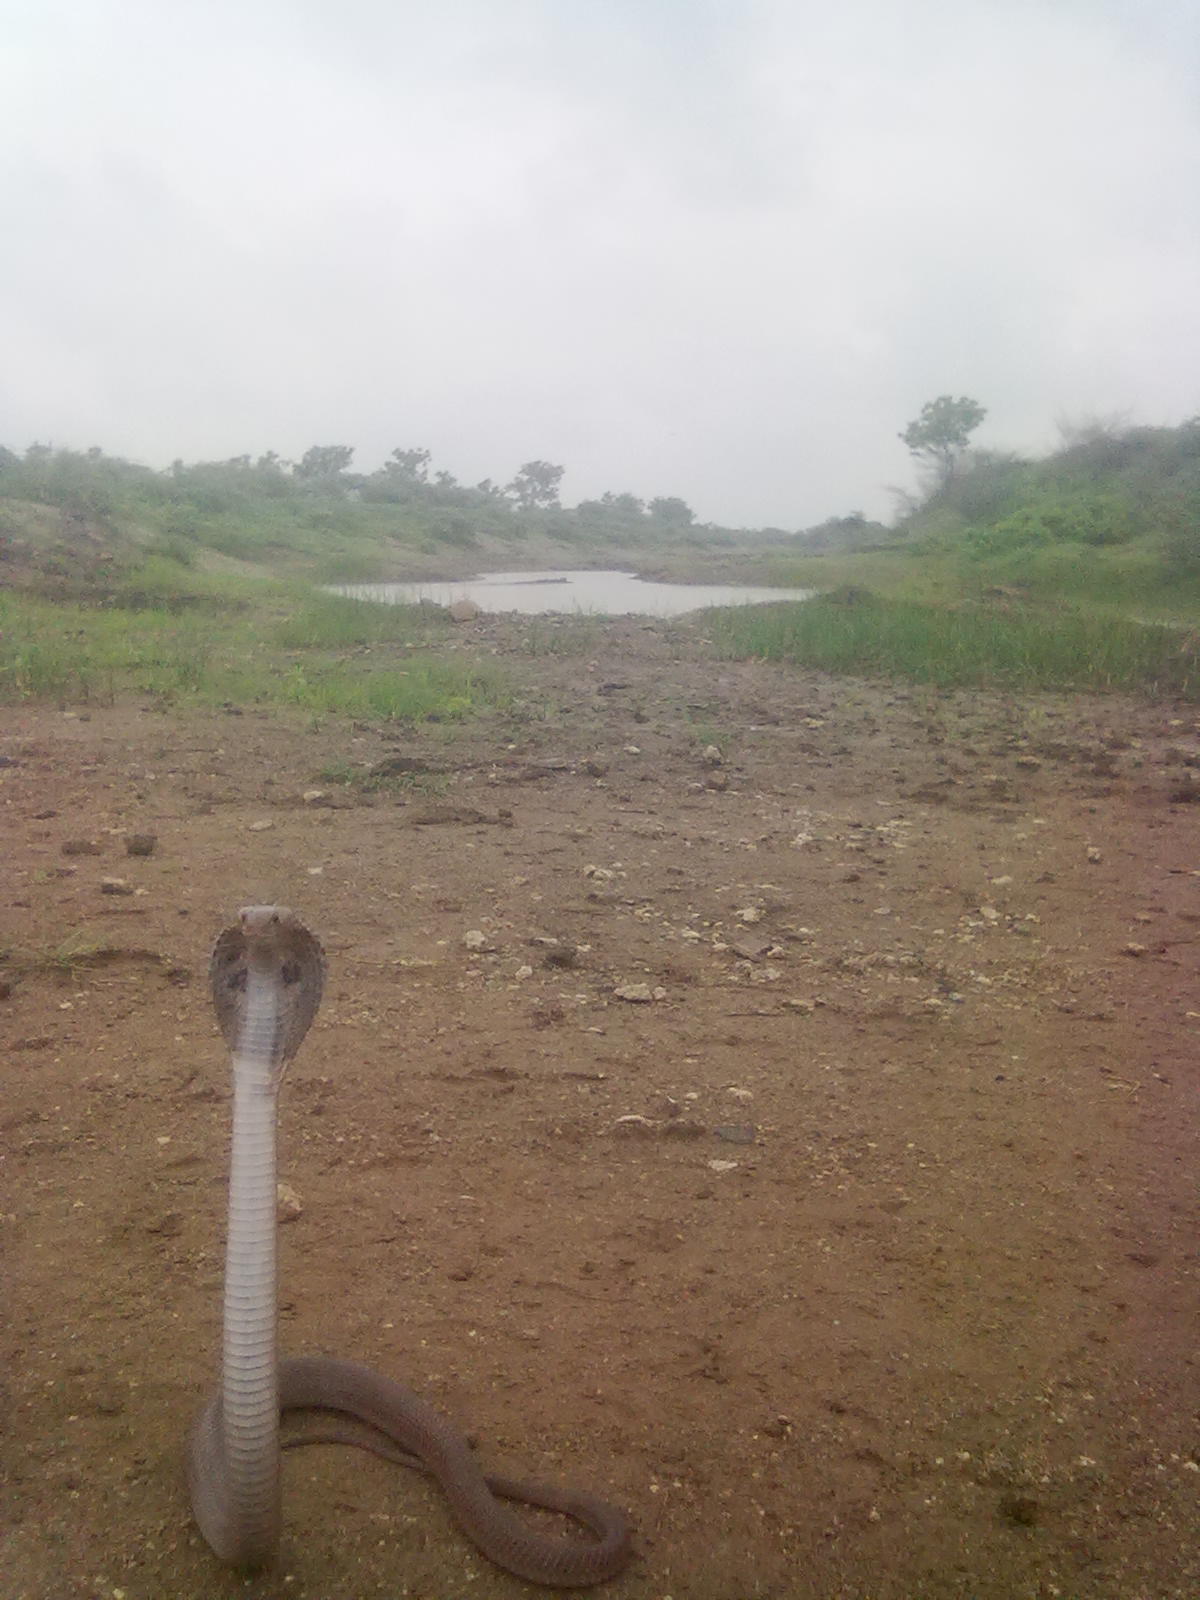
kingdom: Animalia
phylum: Chordata
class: Squamata
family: Elapidae
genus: Naja
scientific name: Naja naja
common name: Indian cobra
